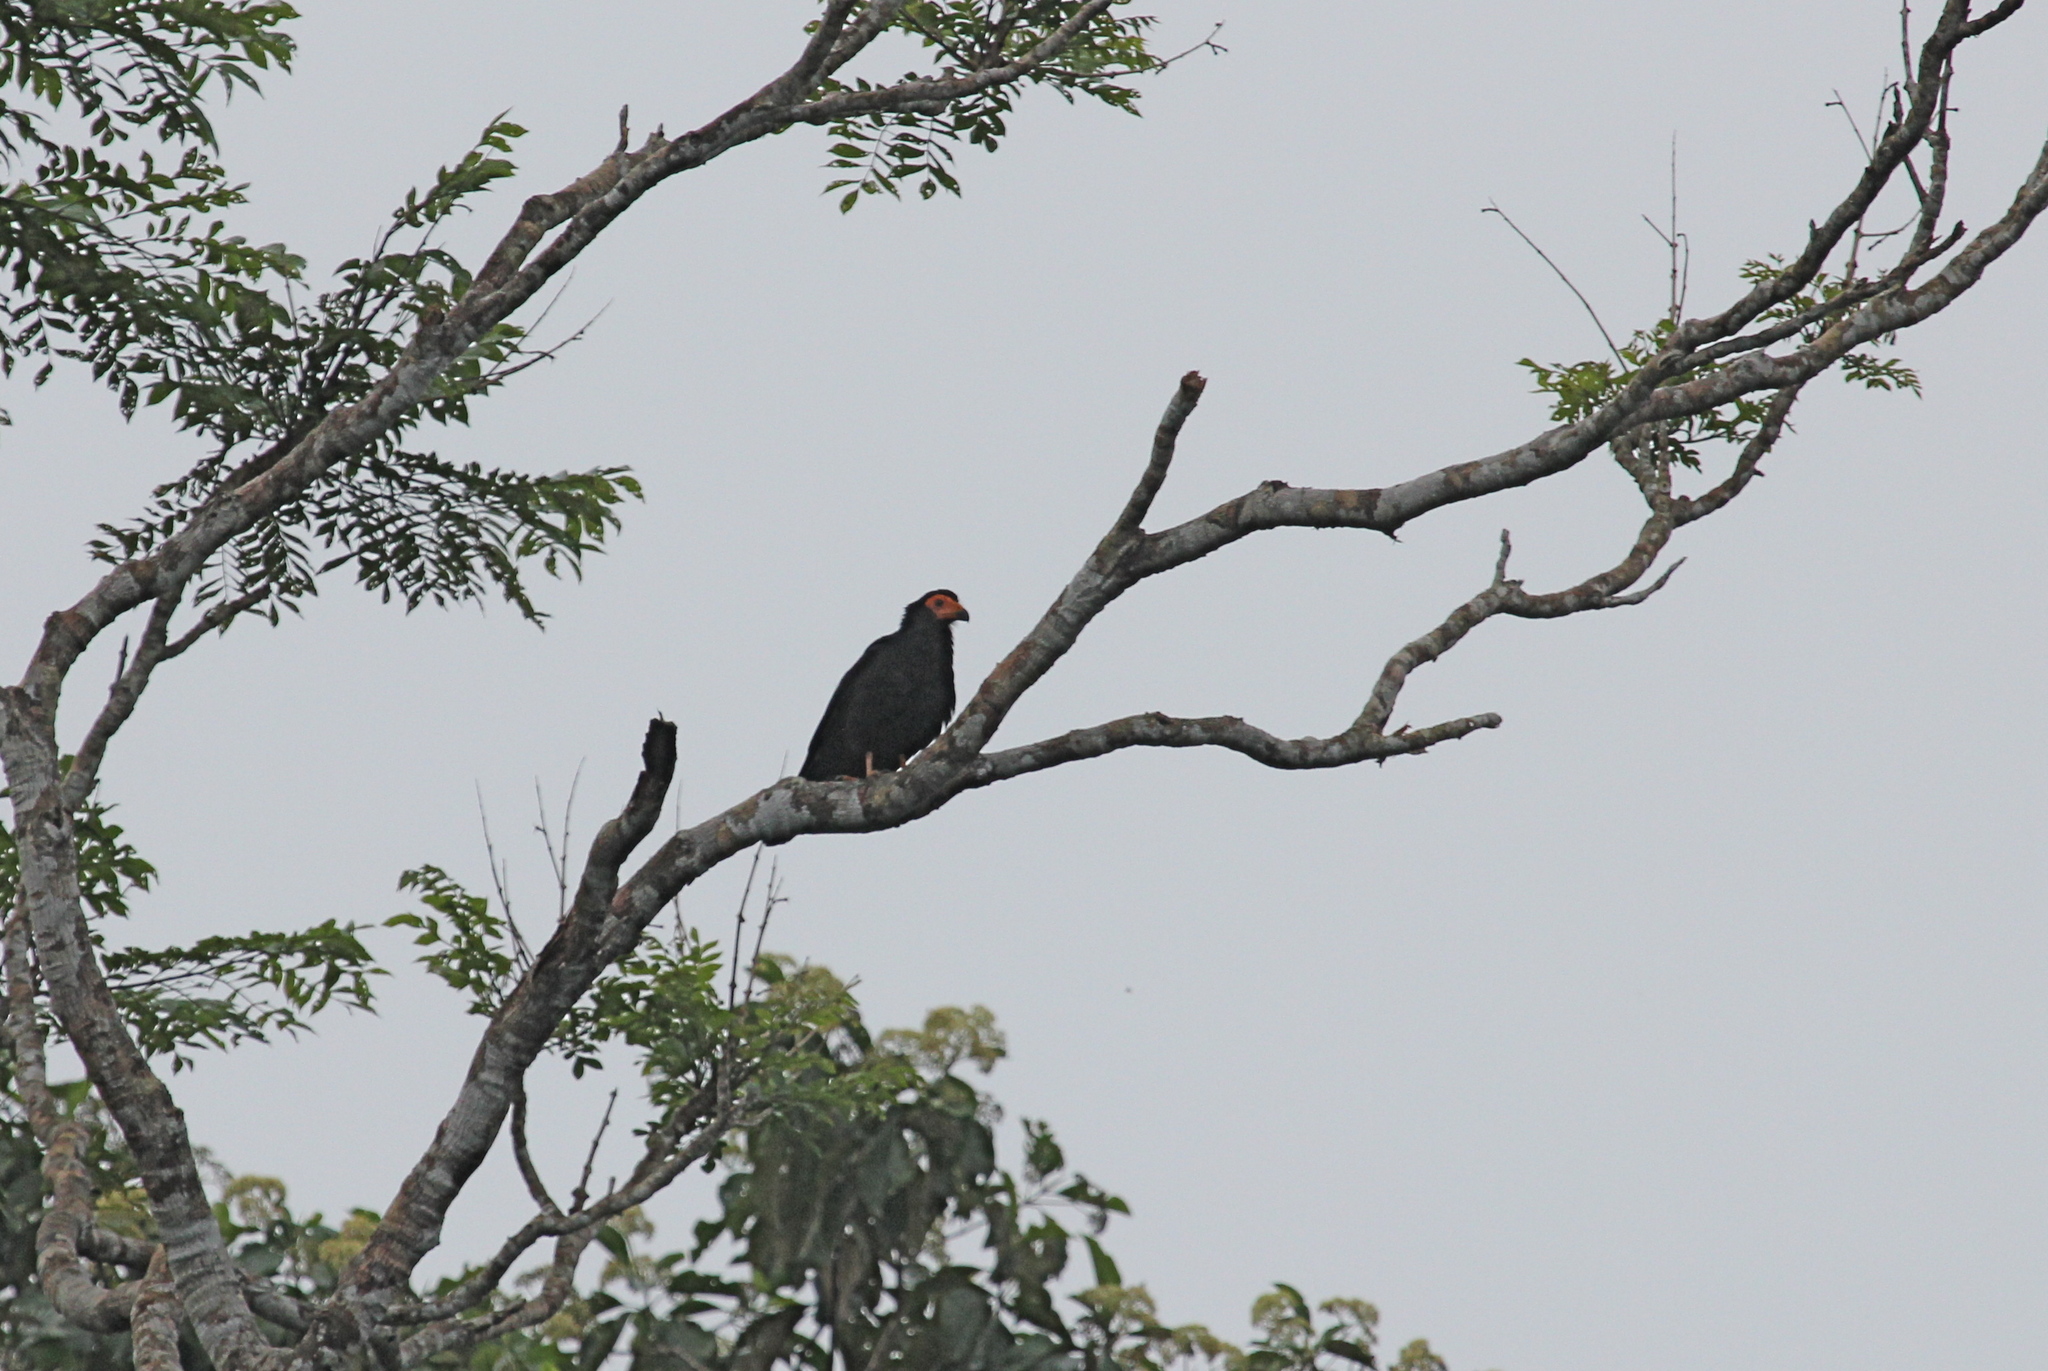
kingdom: Animalia
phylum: Chordata
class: Aves
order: Falconiformes
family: Falconidae
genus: Daptrius
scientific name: Daptrius ater
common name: Black caracara
